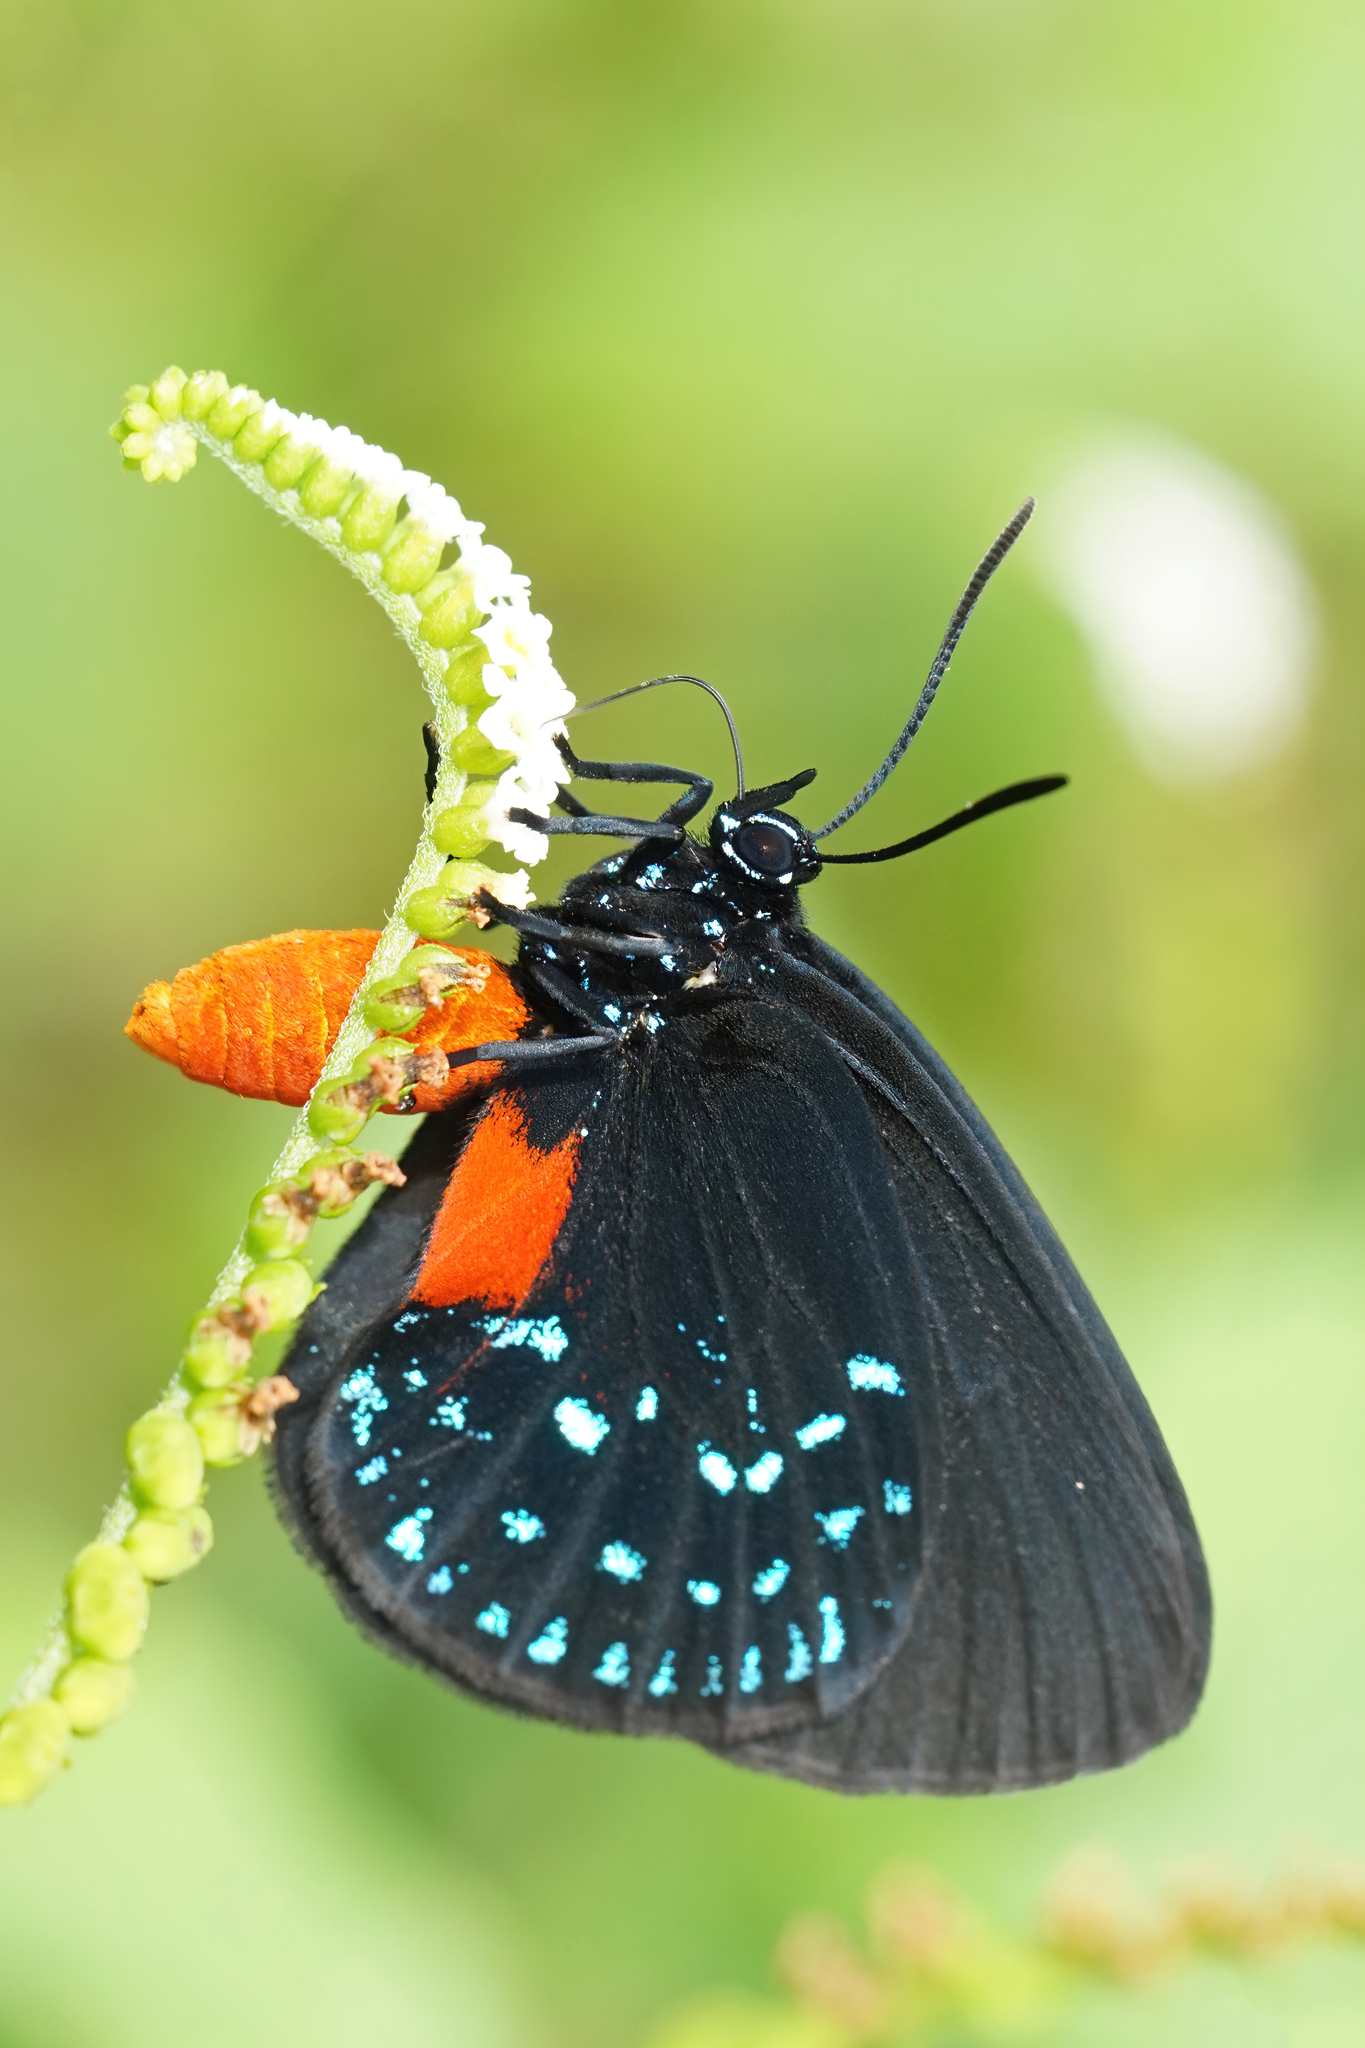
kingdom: Animalia
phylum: Arthropoda
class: Insecta
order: Lepidoptera
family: Lycaenidae
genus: Eumaeus
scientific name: Eumaeus atala
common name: Atala
